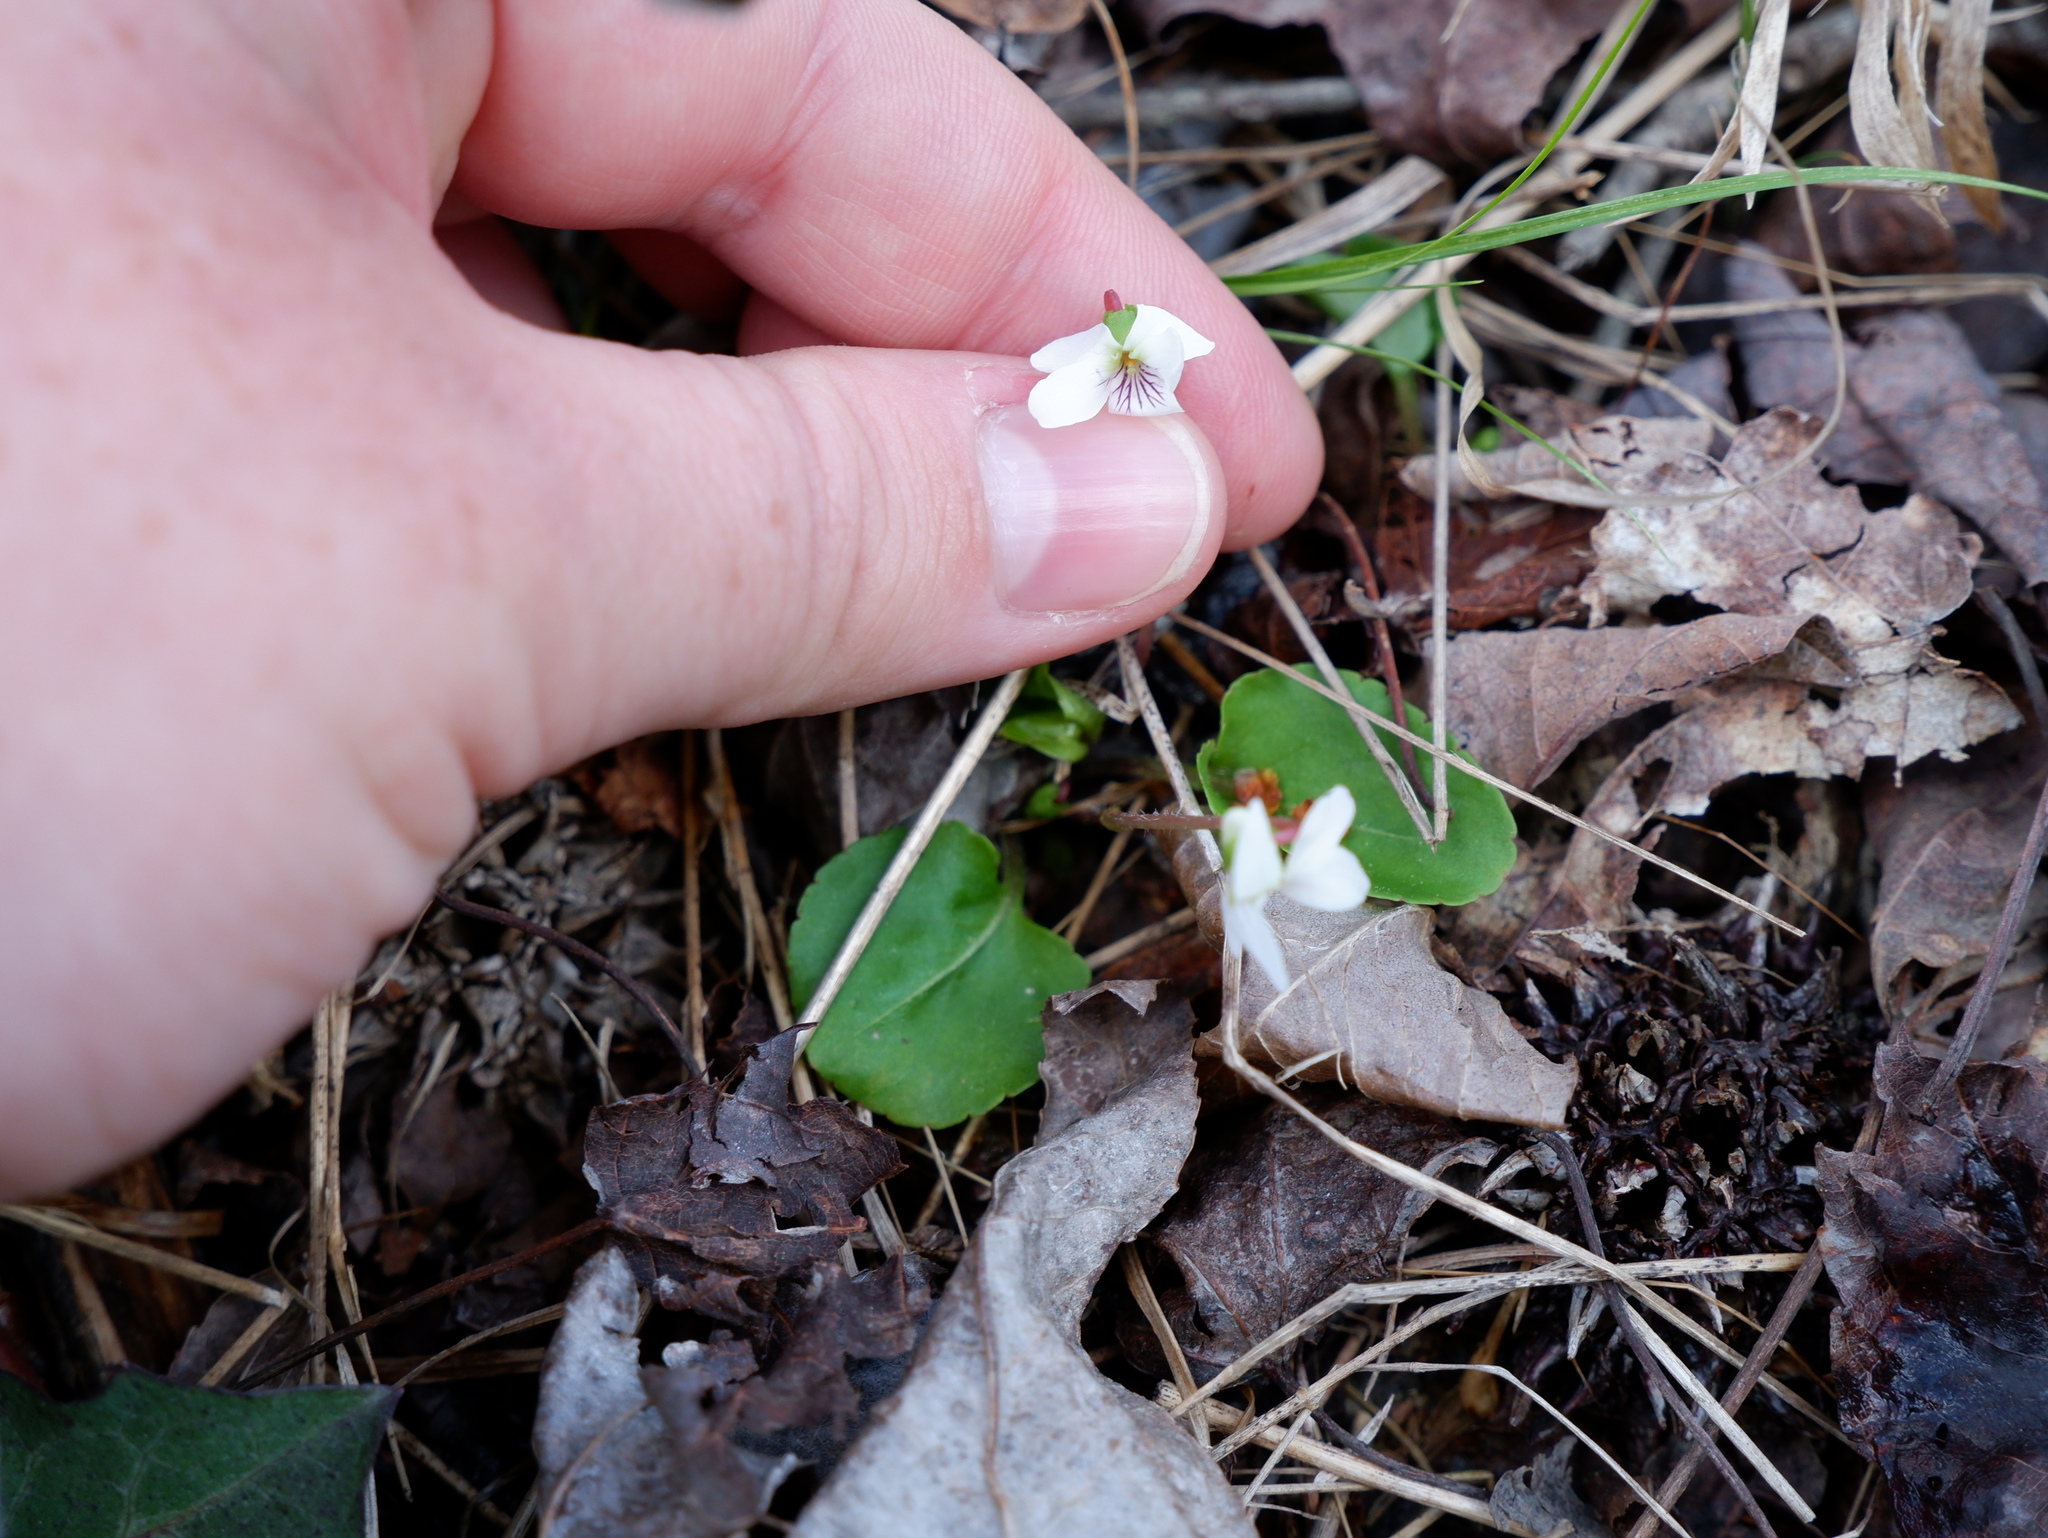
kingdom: Plantae
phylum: Tracheophyta
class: Magnoliopsida
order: Malpighiales
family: Violaceae
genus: Viola
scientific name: Viola minuscula
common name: Northern white violet
